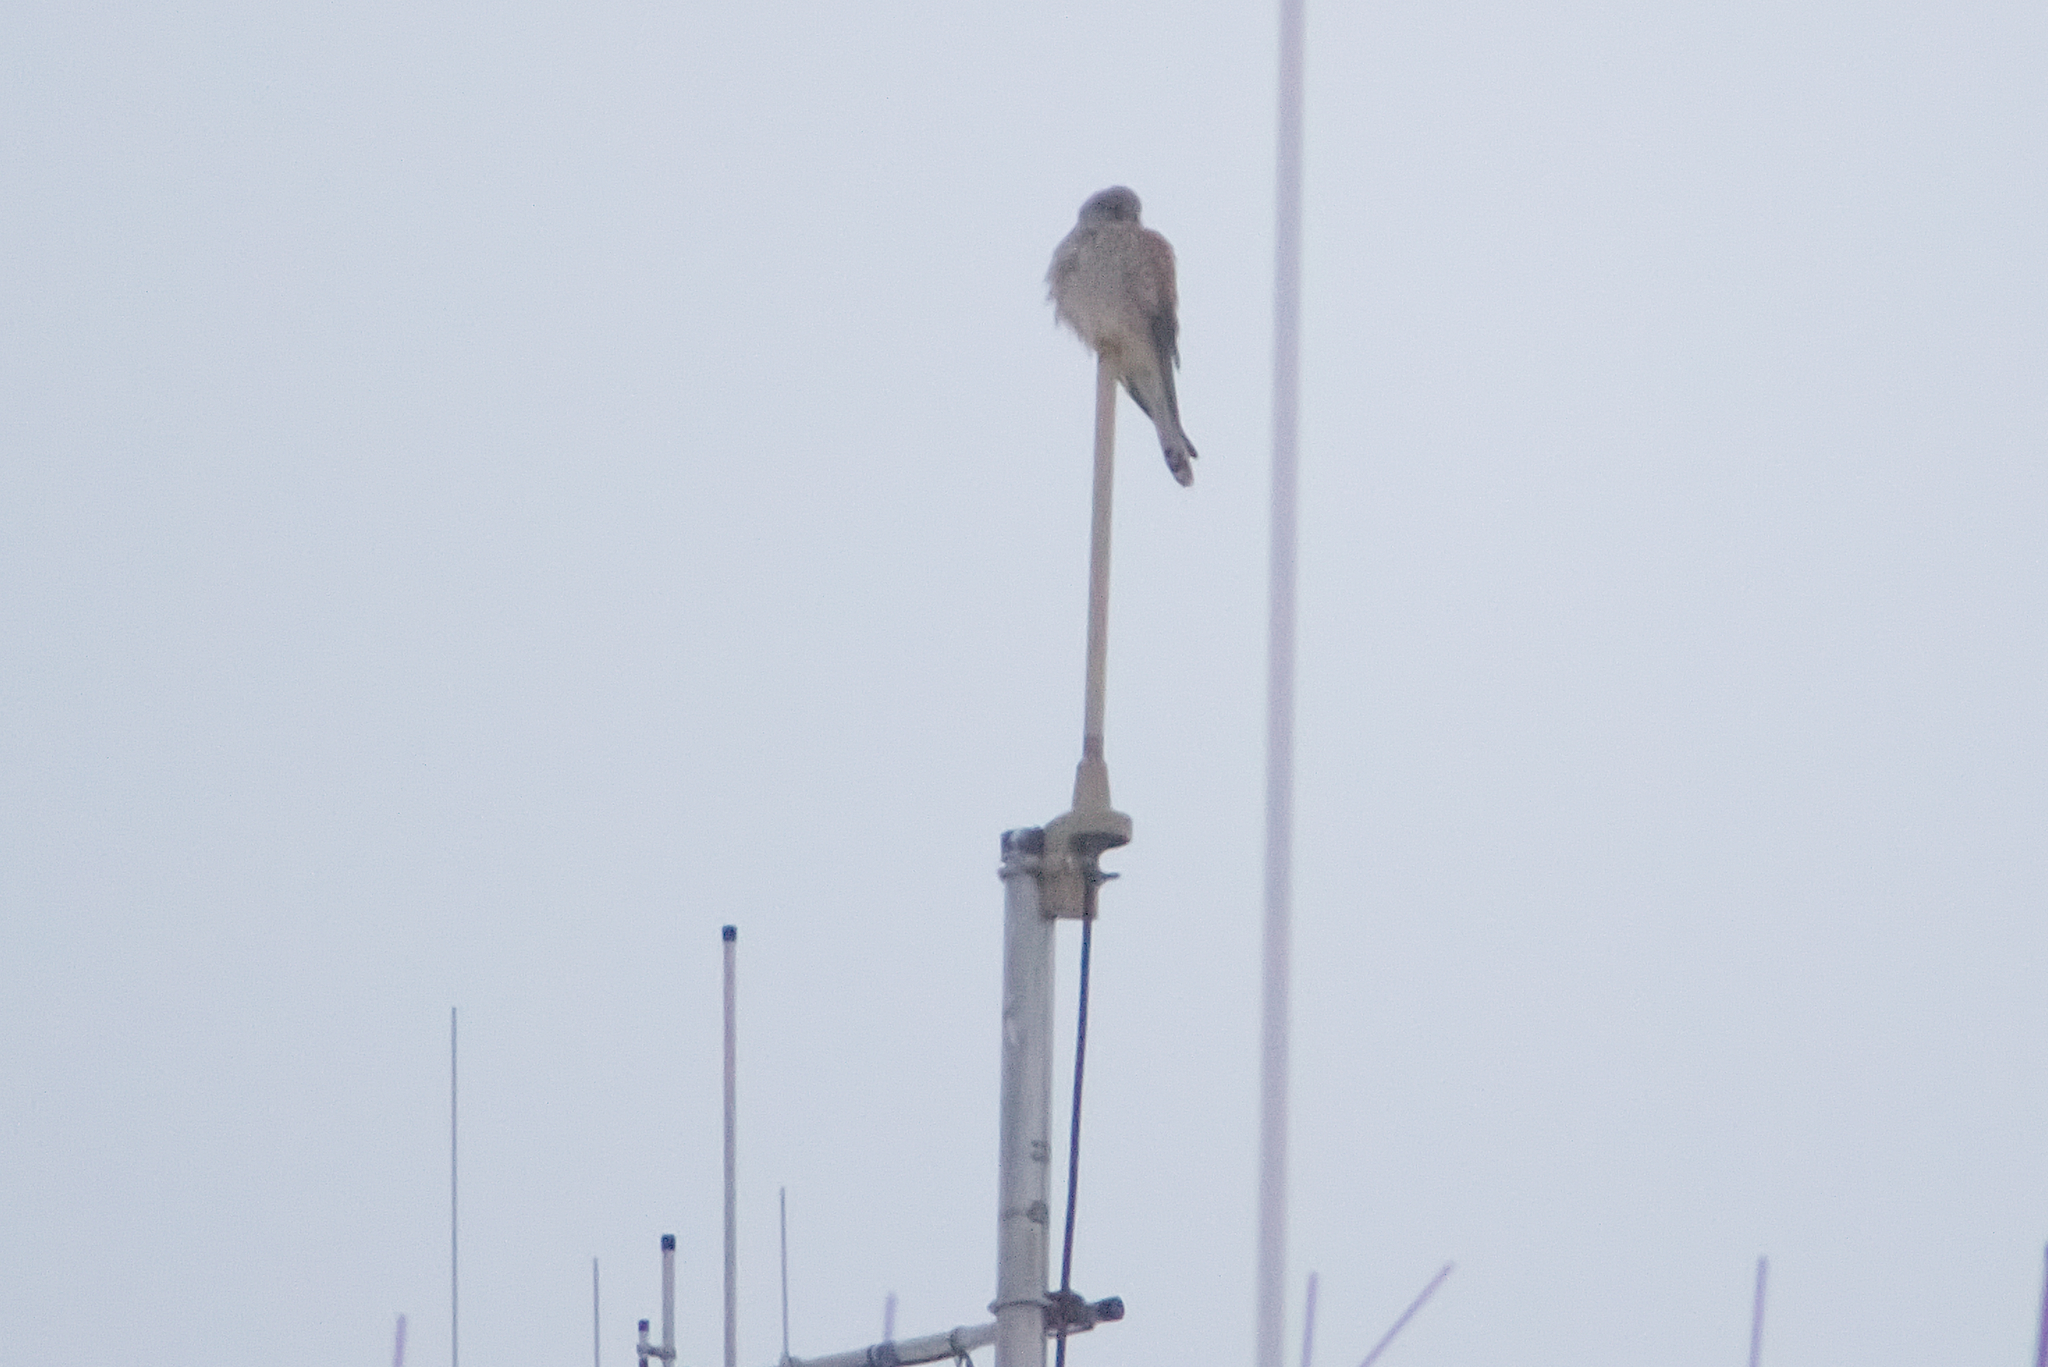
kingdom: Animalia
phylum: Chordata
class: Aves
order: Falconiformes
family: Falconidae
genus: Falco
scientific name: Falco tinnunculus
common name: Common kestrel
